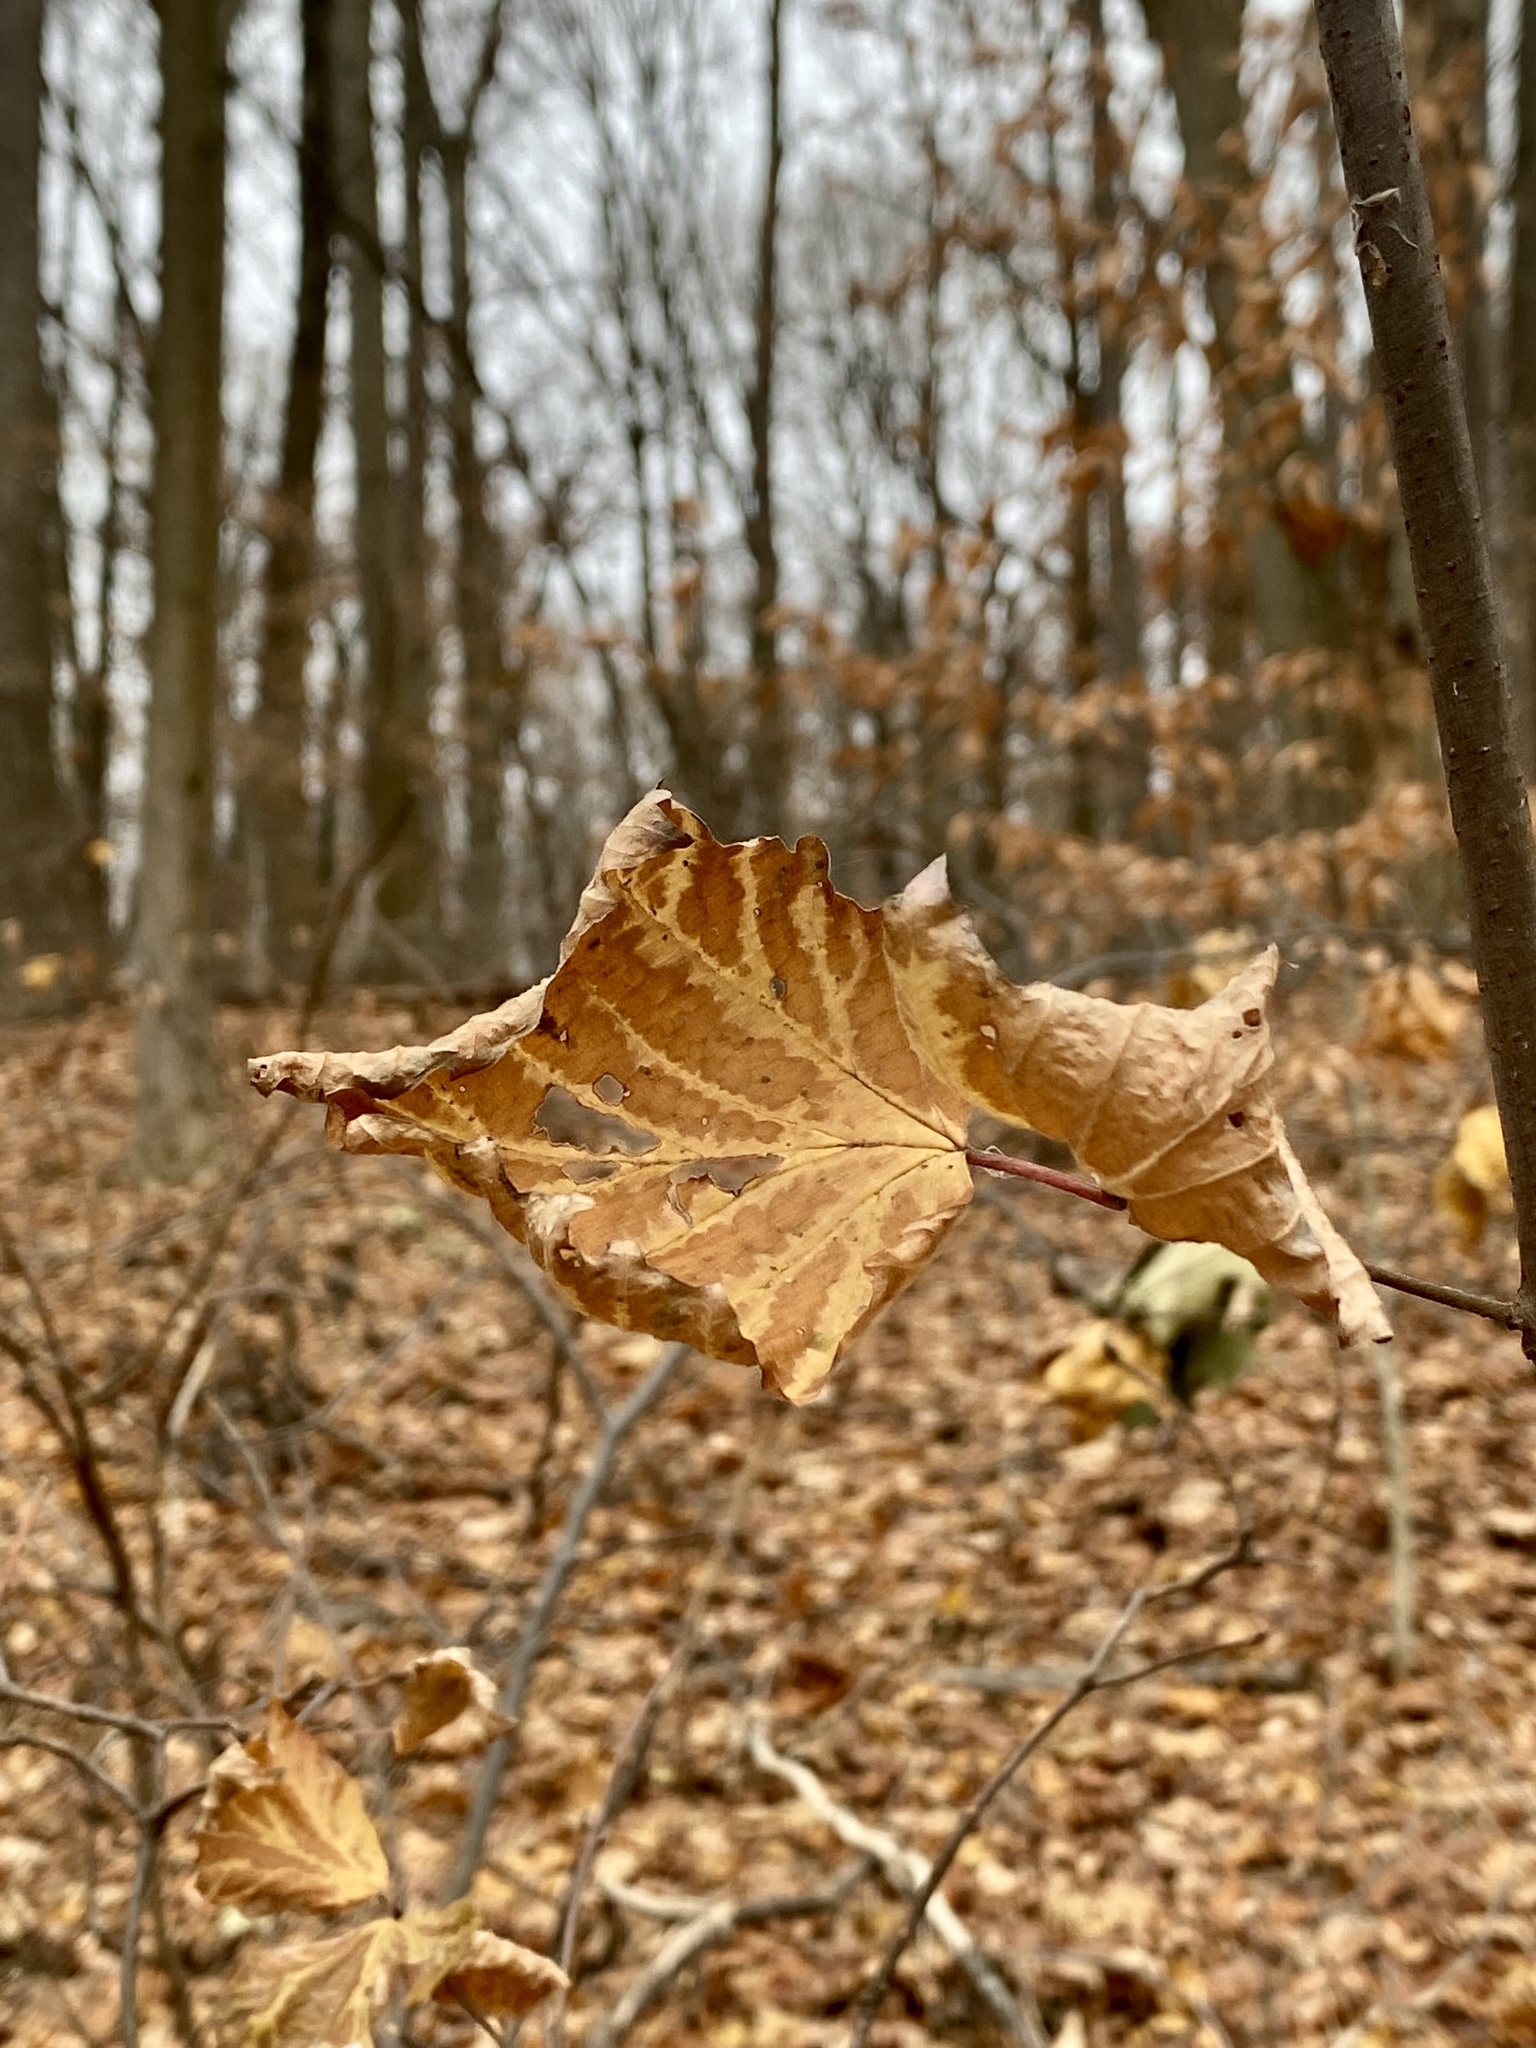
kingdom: Plantae
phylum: Tracheophyta
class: Magnoliopsida
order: Dipsacales
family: Viburnaceae
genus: Viburnum
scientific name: Viburnum acerifolium
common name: Dockmackie
